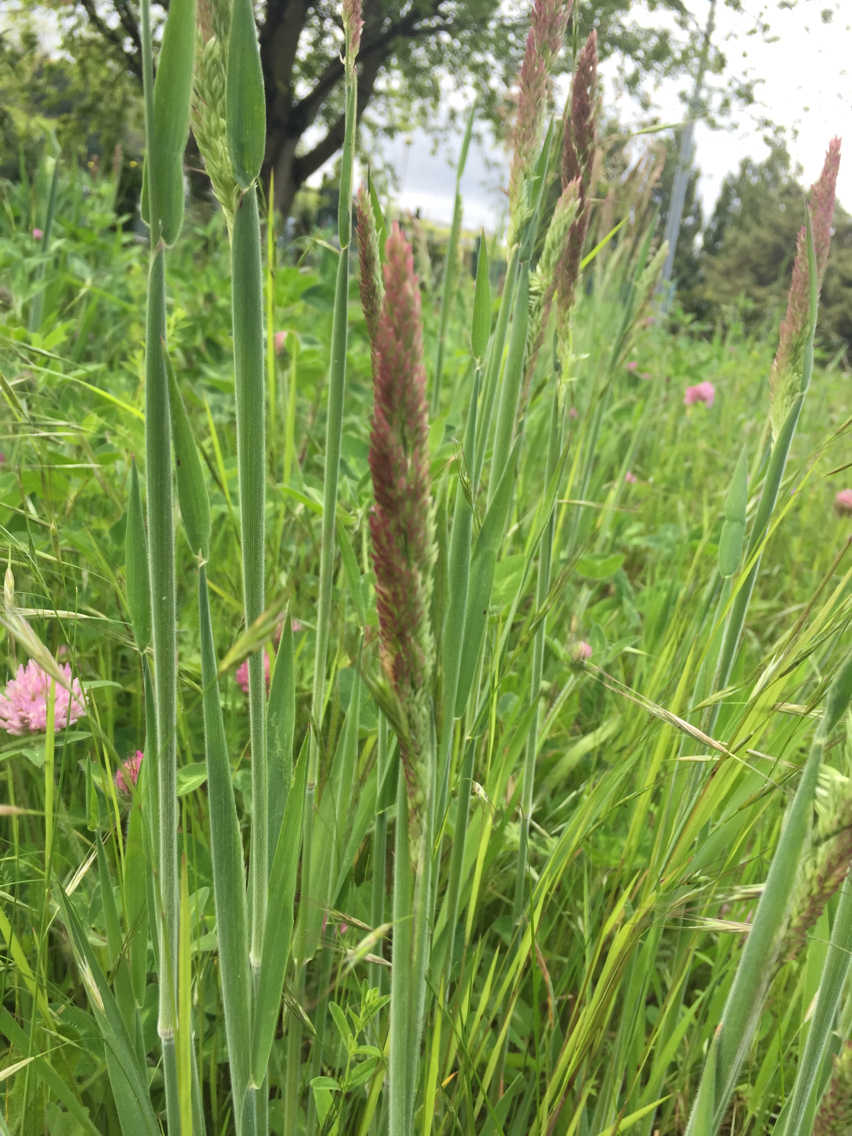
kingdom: Plantae
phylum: Tracheophyta
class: Liliopsida
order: Poales
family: Poaceae
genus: Holcus
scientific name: Holcus lanatus
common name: Yorkshire-fog
